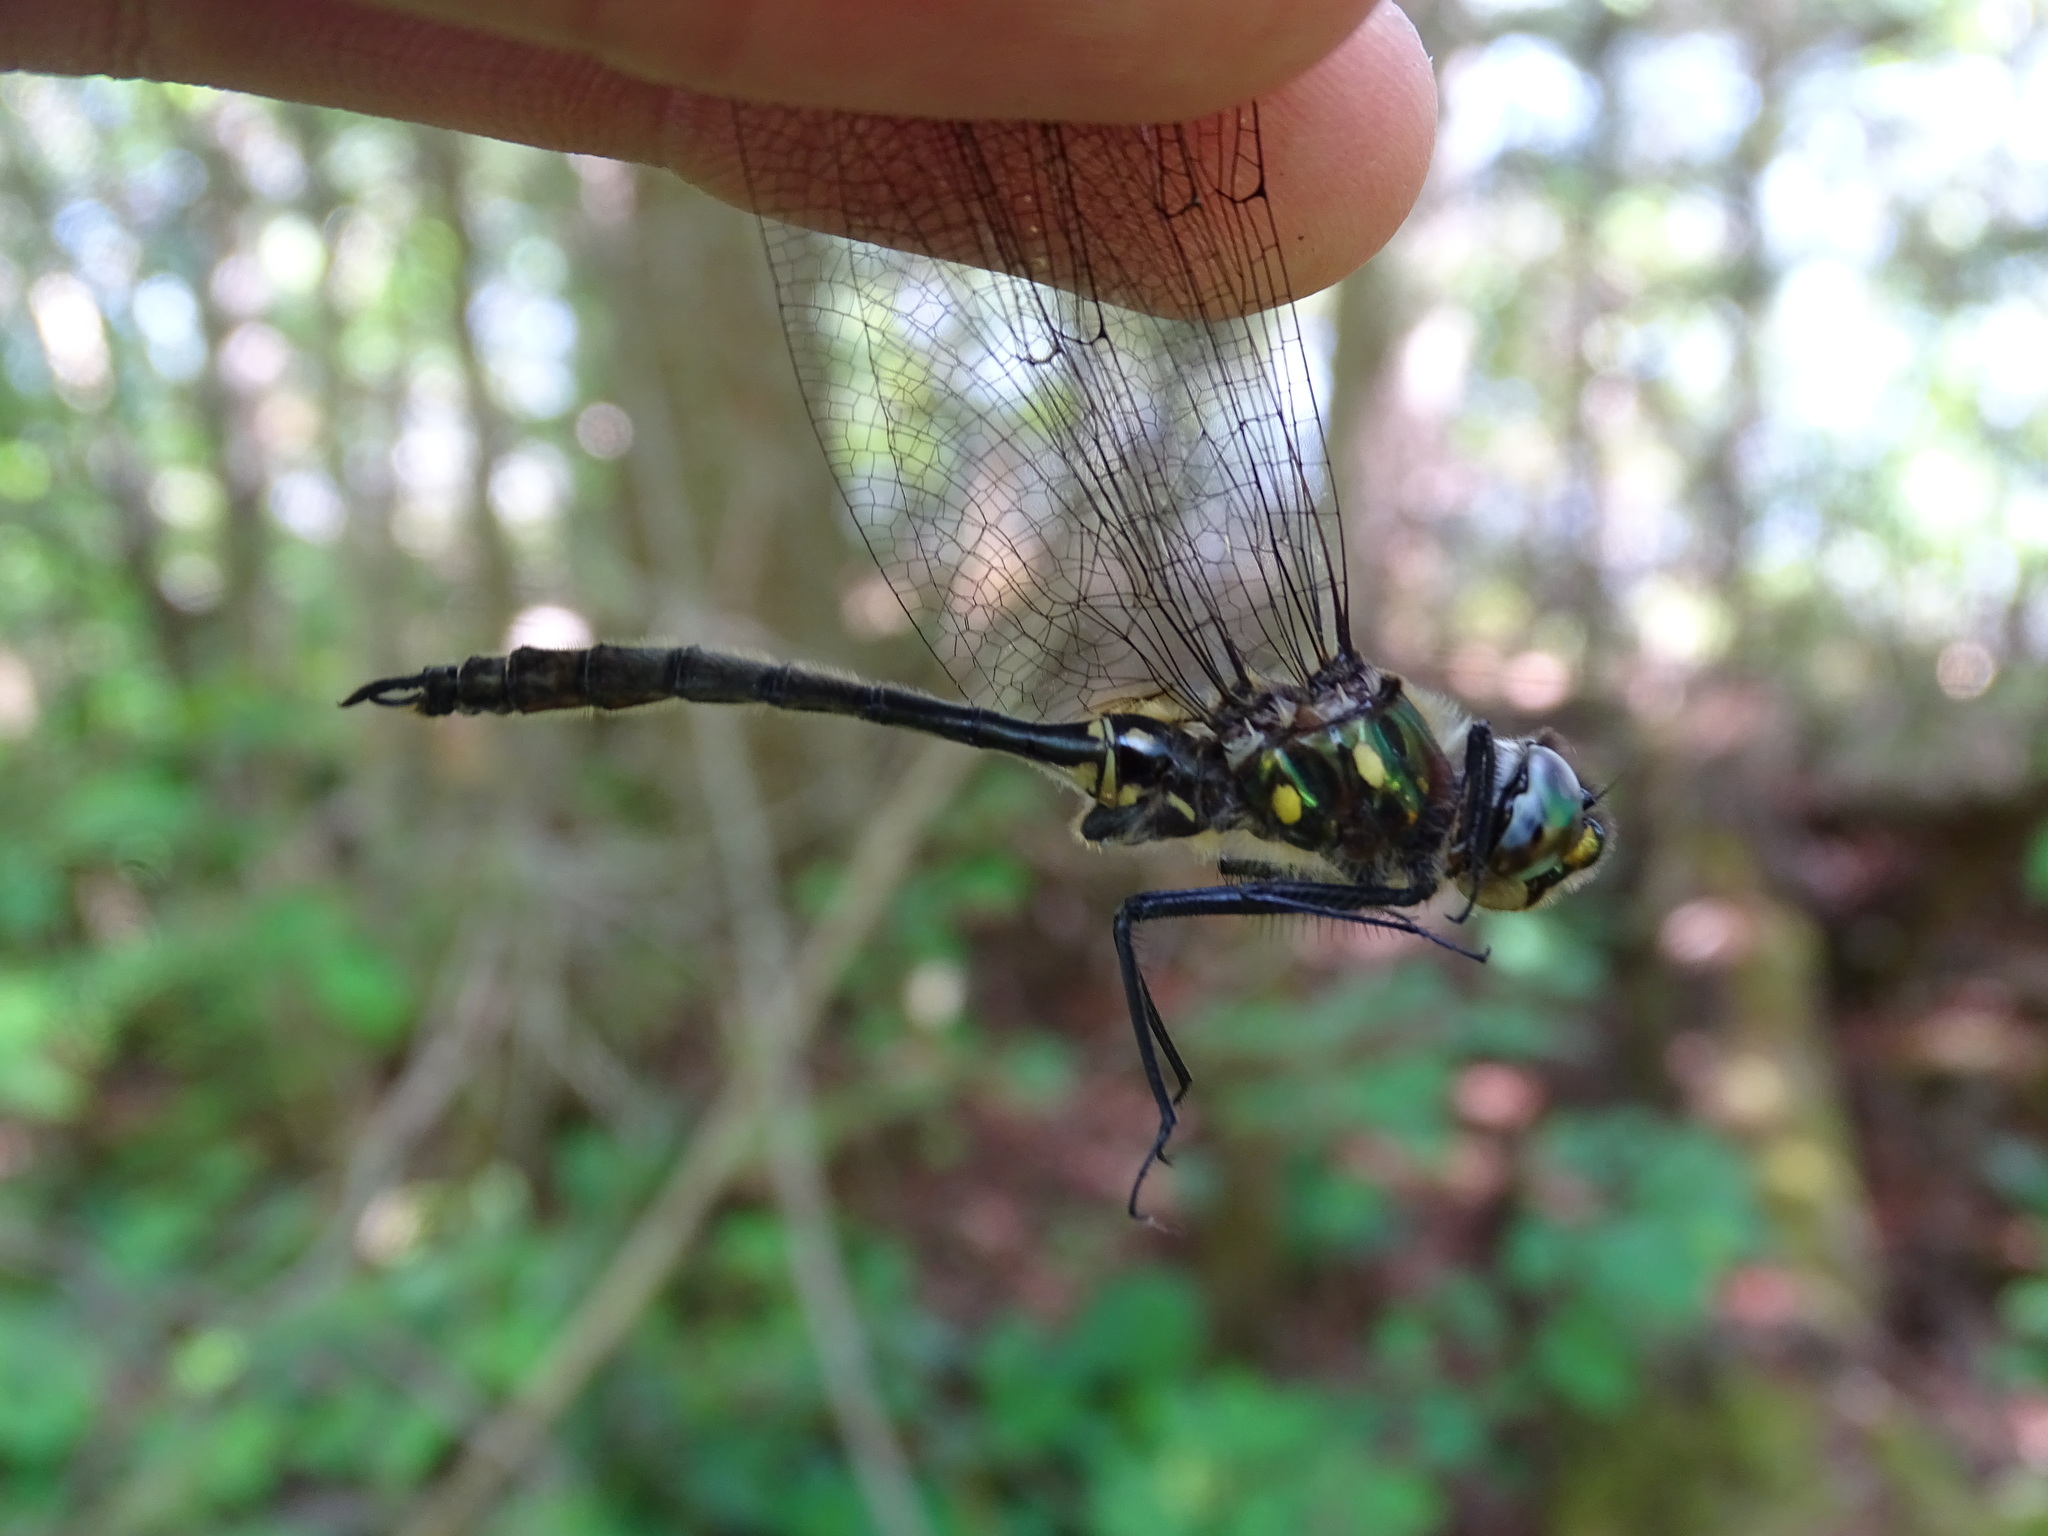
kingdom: Animalia
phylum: Arthropoda
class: Insecta
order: Odonata
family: Corduliidae
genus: Somatochlora
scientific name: Somatochlora minor
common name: Ocellated emerald
